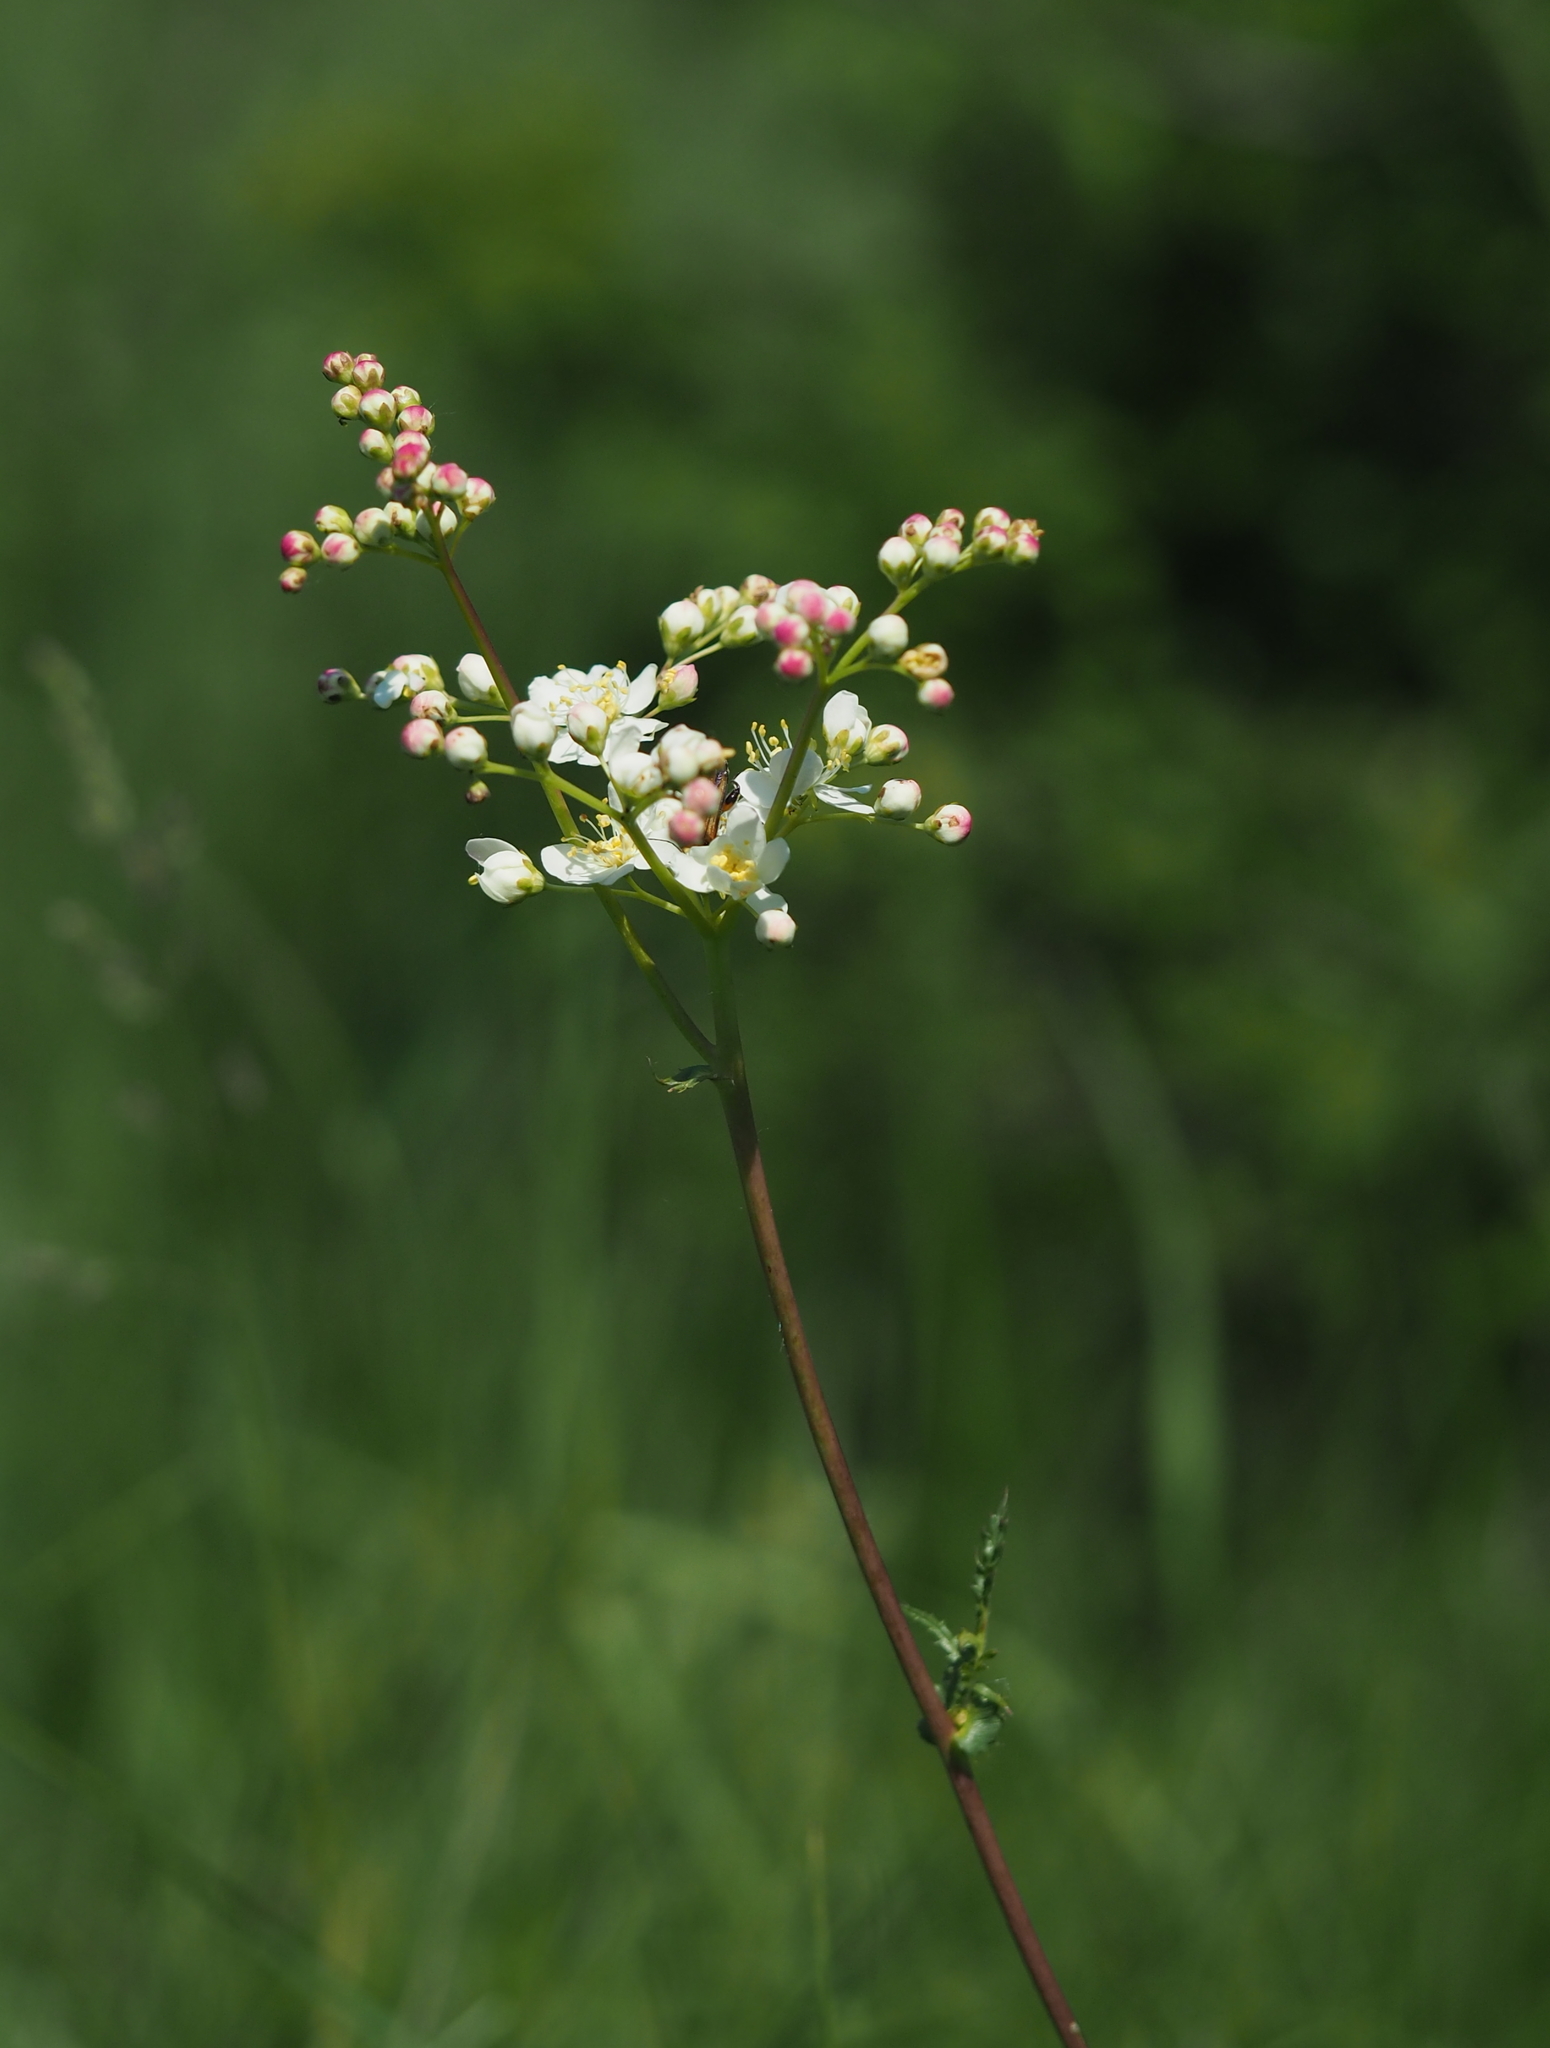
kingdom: Plantae
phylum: Tracheophyta
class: Magnoliopsida
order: Rosales
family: Rosaceae
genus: Filipendula
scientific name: Filipendula vulgaris
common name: Dropwort
